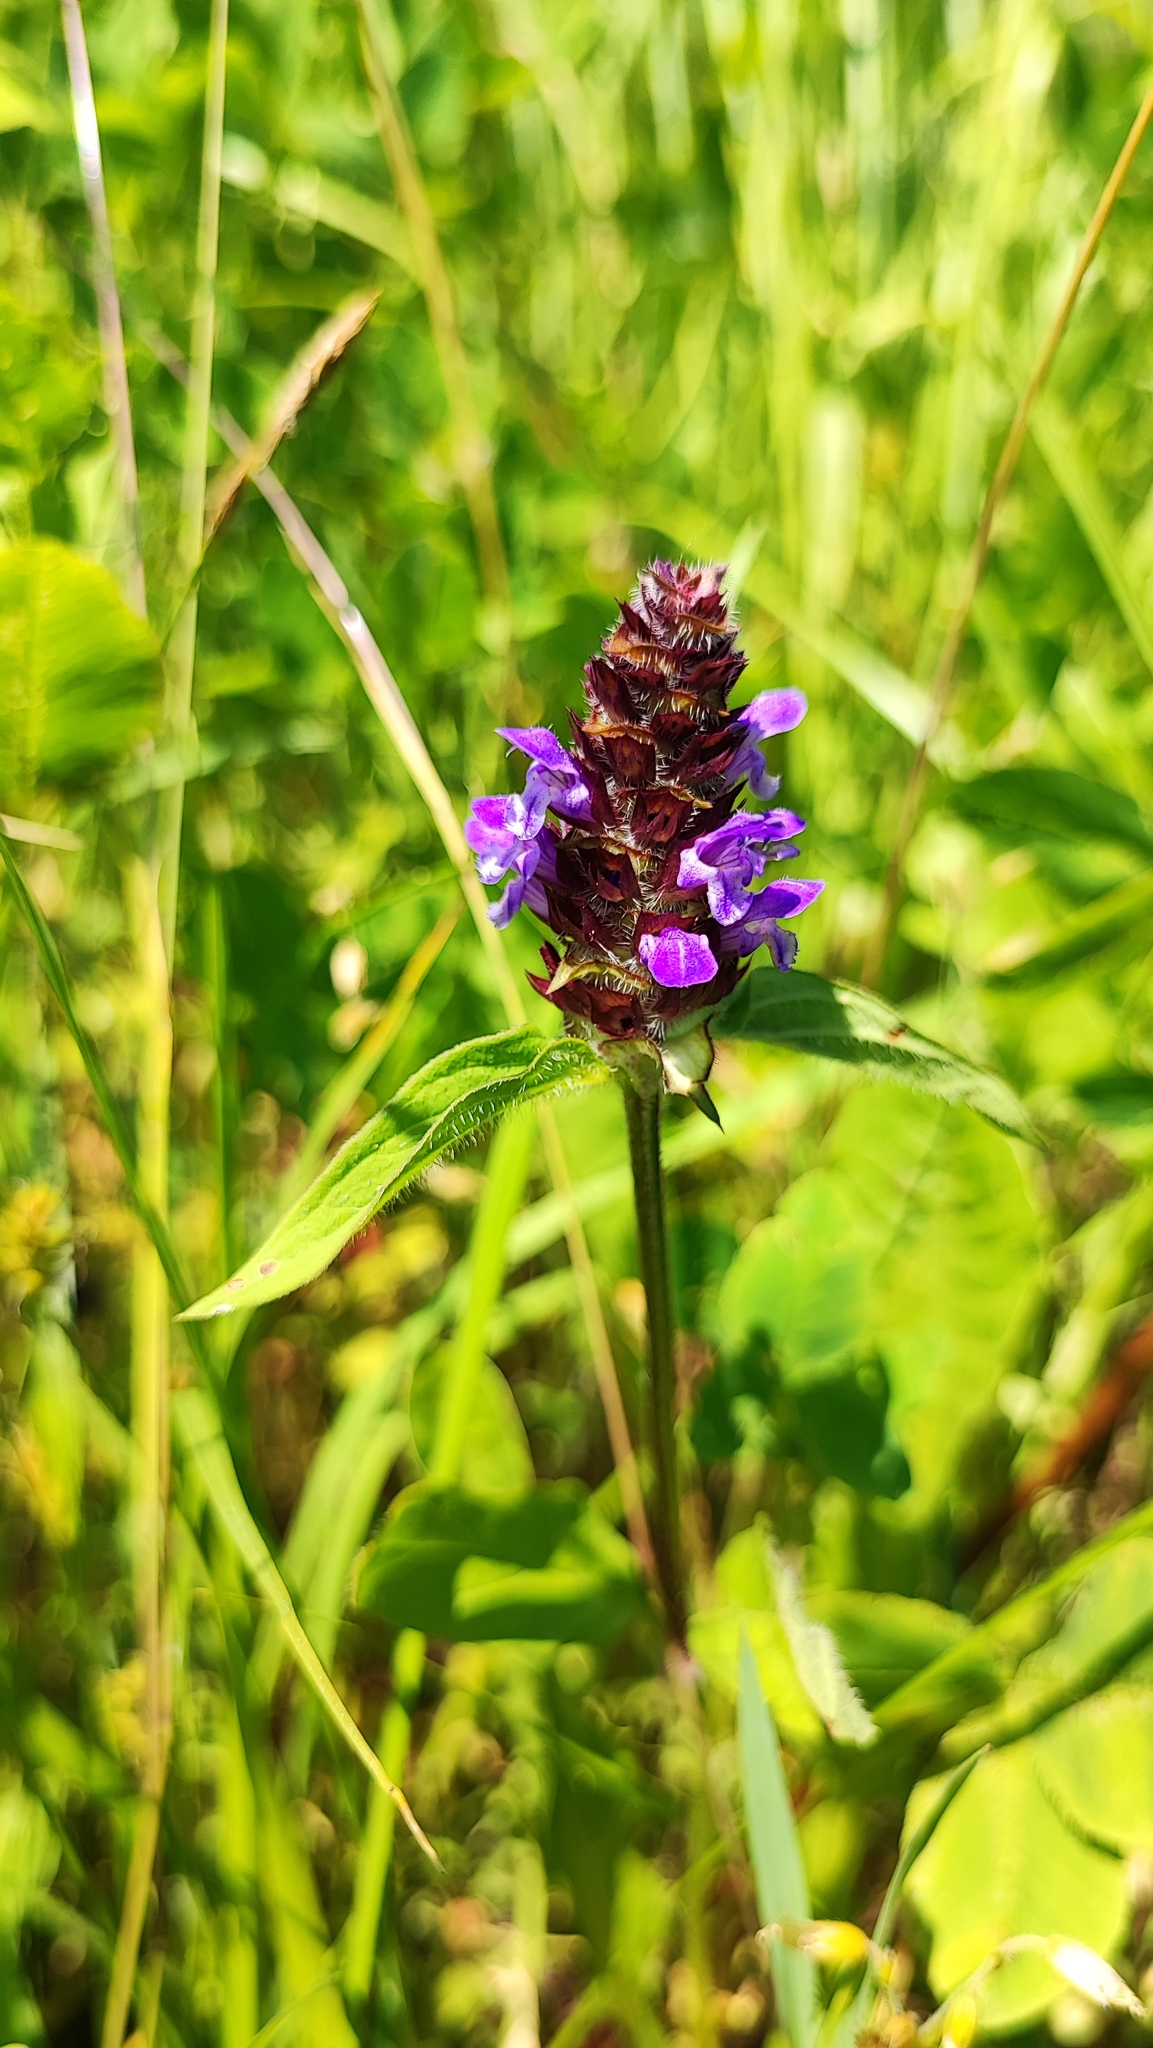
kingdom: Plantae
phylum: Tracheophyta
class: Magnoliopsida
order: Lamiales
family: Lamiaceae
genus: Prunella
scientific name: Prunella vulgaris
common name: Heal-all
